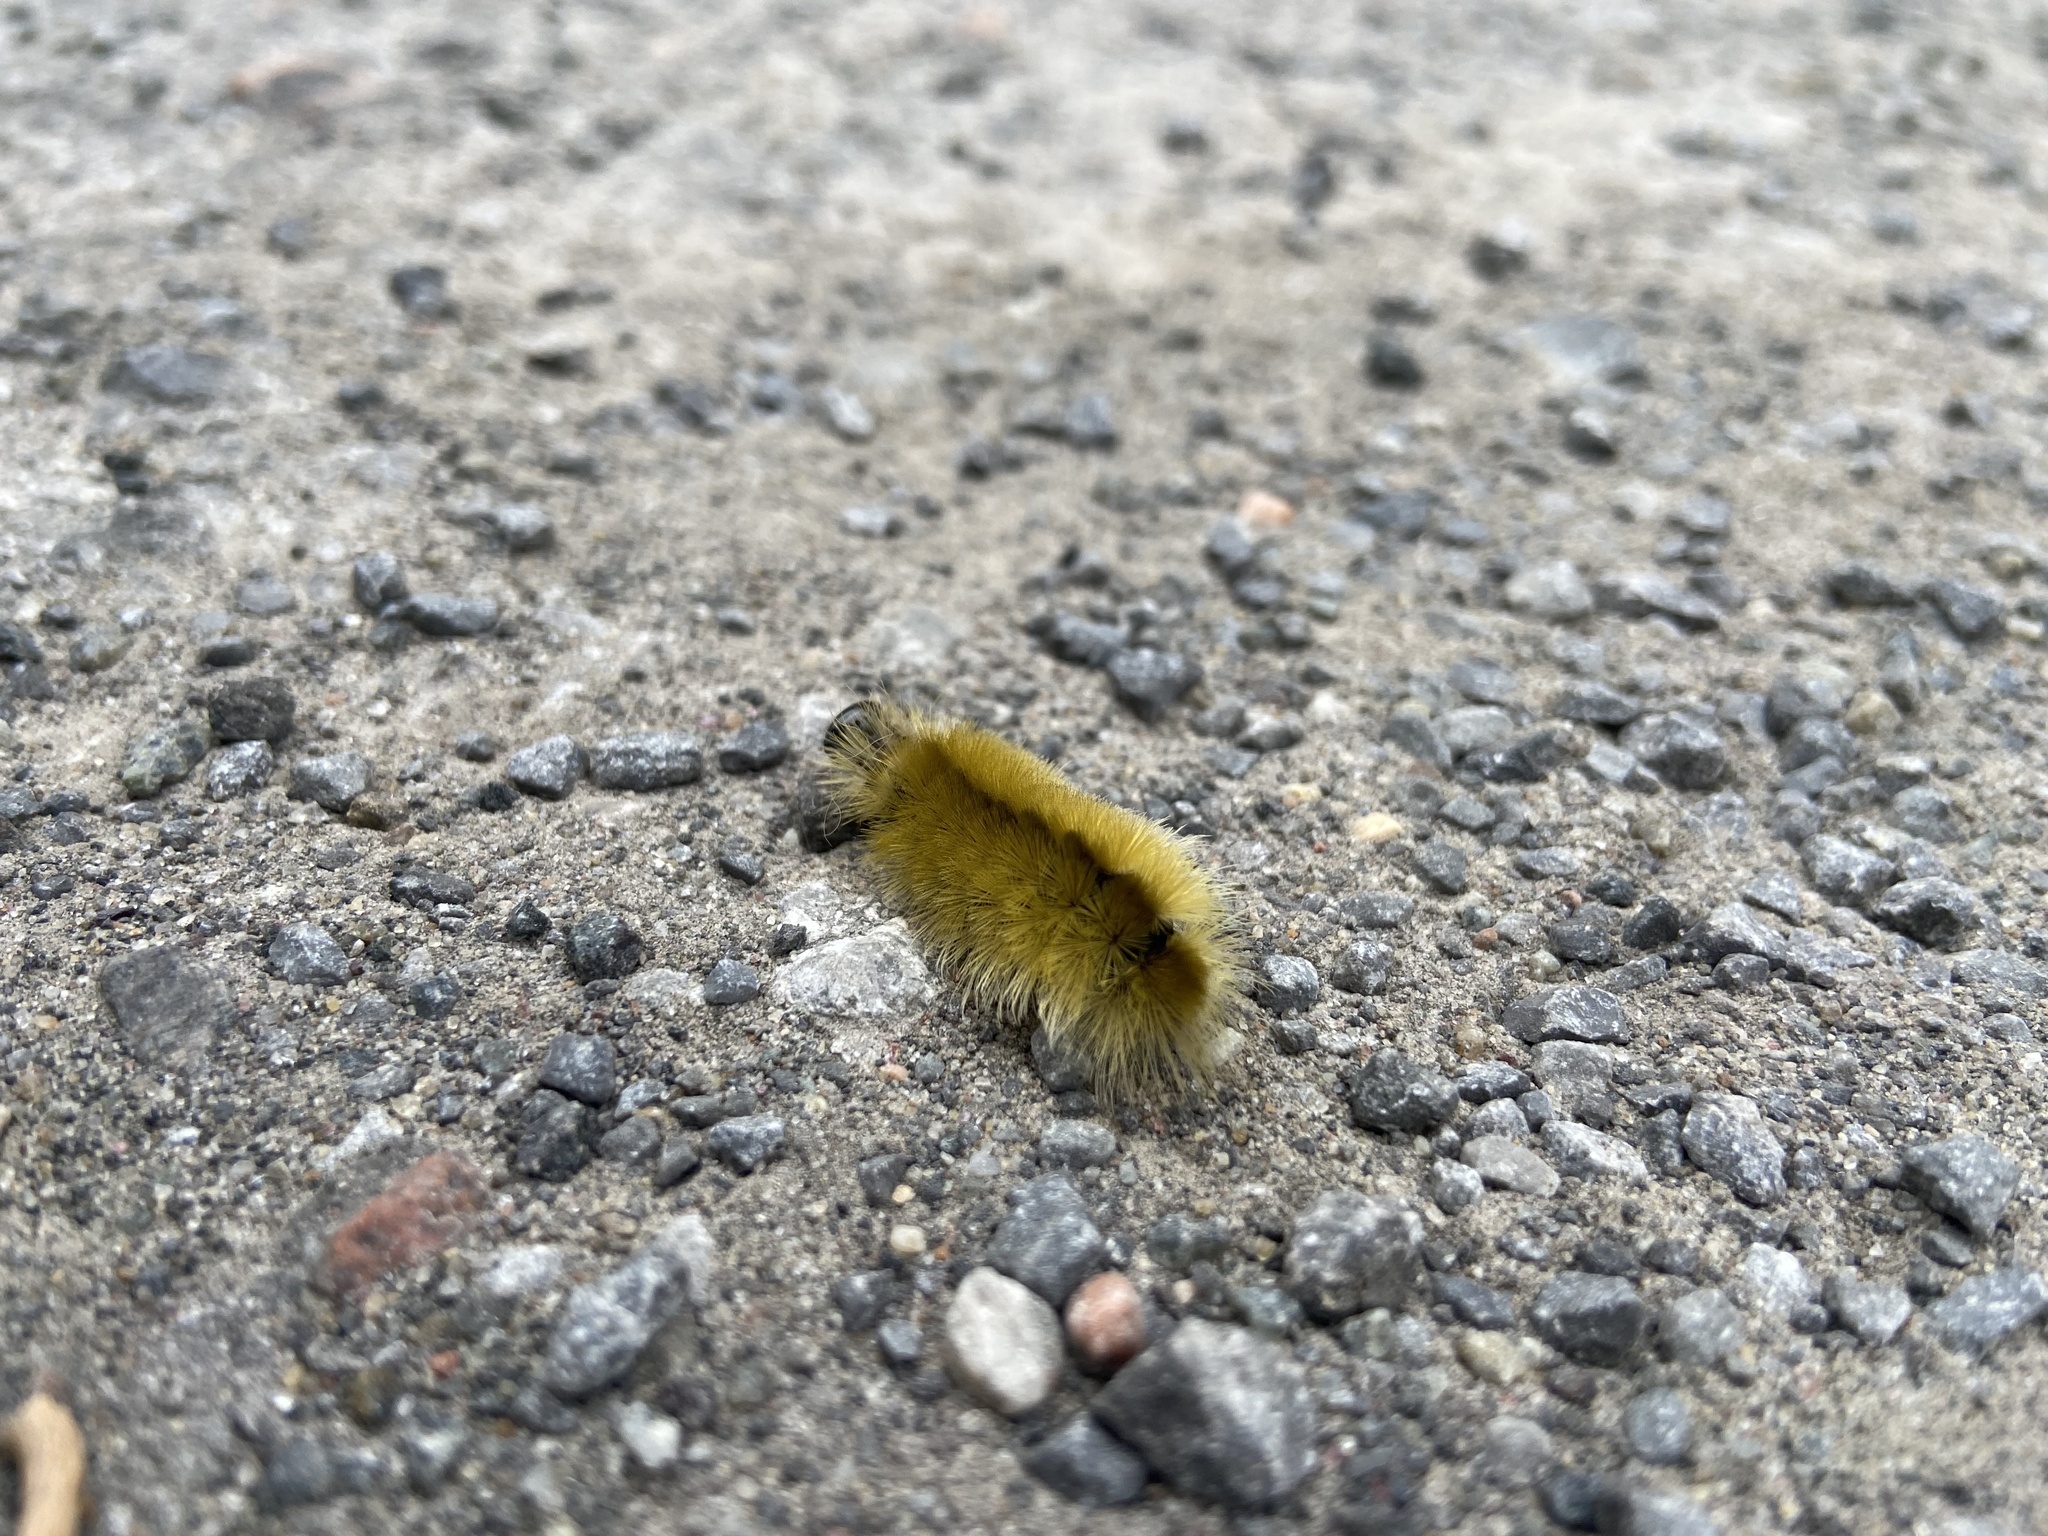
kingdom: Animalia
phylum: Arthropoda
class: Insecta
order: Lepidoptera
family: Erebidae
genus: Halysidota
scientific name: Halysidota tessellaris
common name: Banded tussock moth
